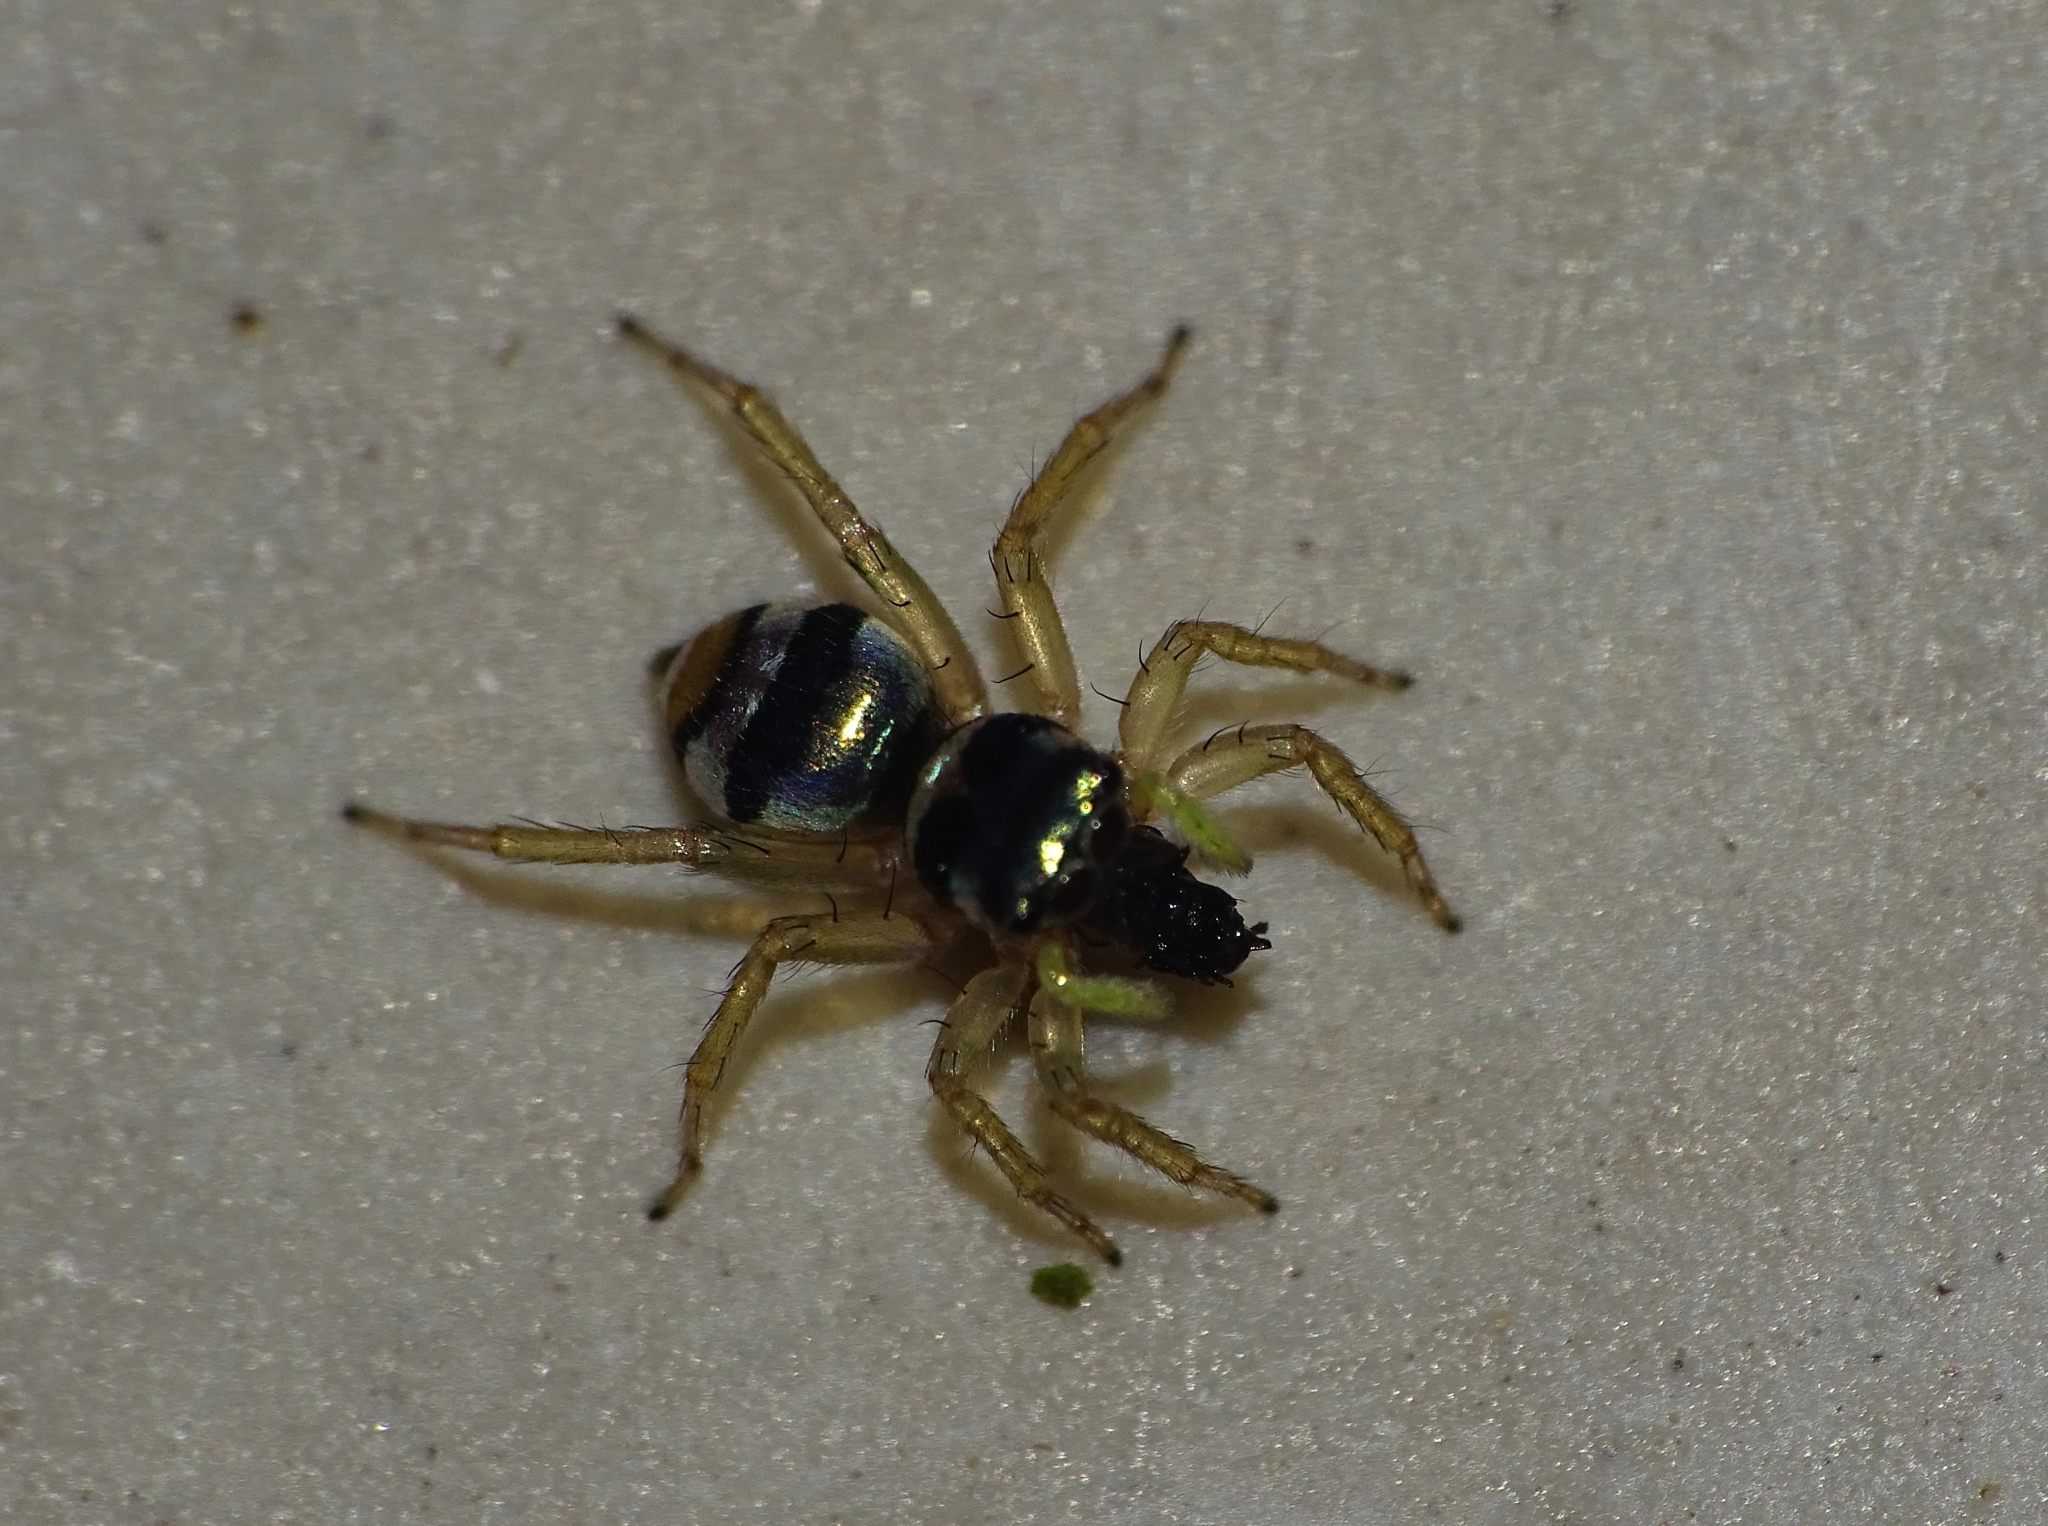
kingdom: Animalia
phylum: Arthropoda
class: Arachnida
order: Araneae
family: Salticidae
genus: Phintella
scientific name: Phintella vittata
